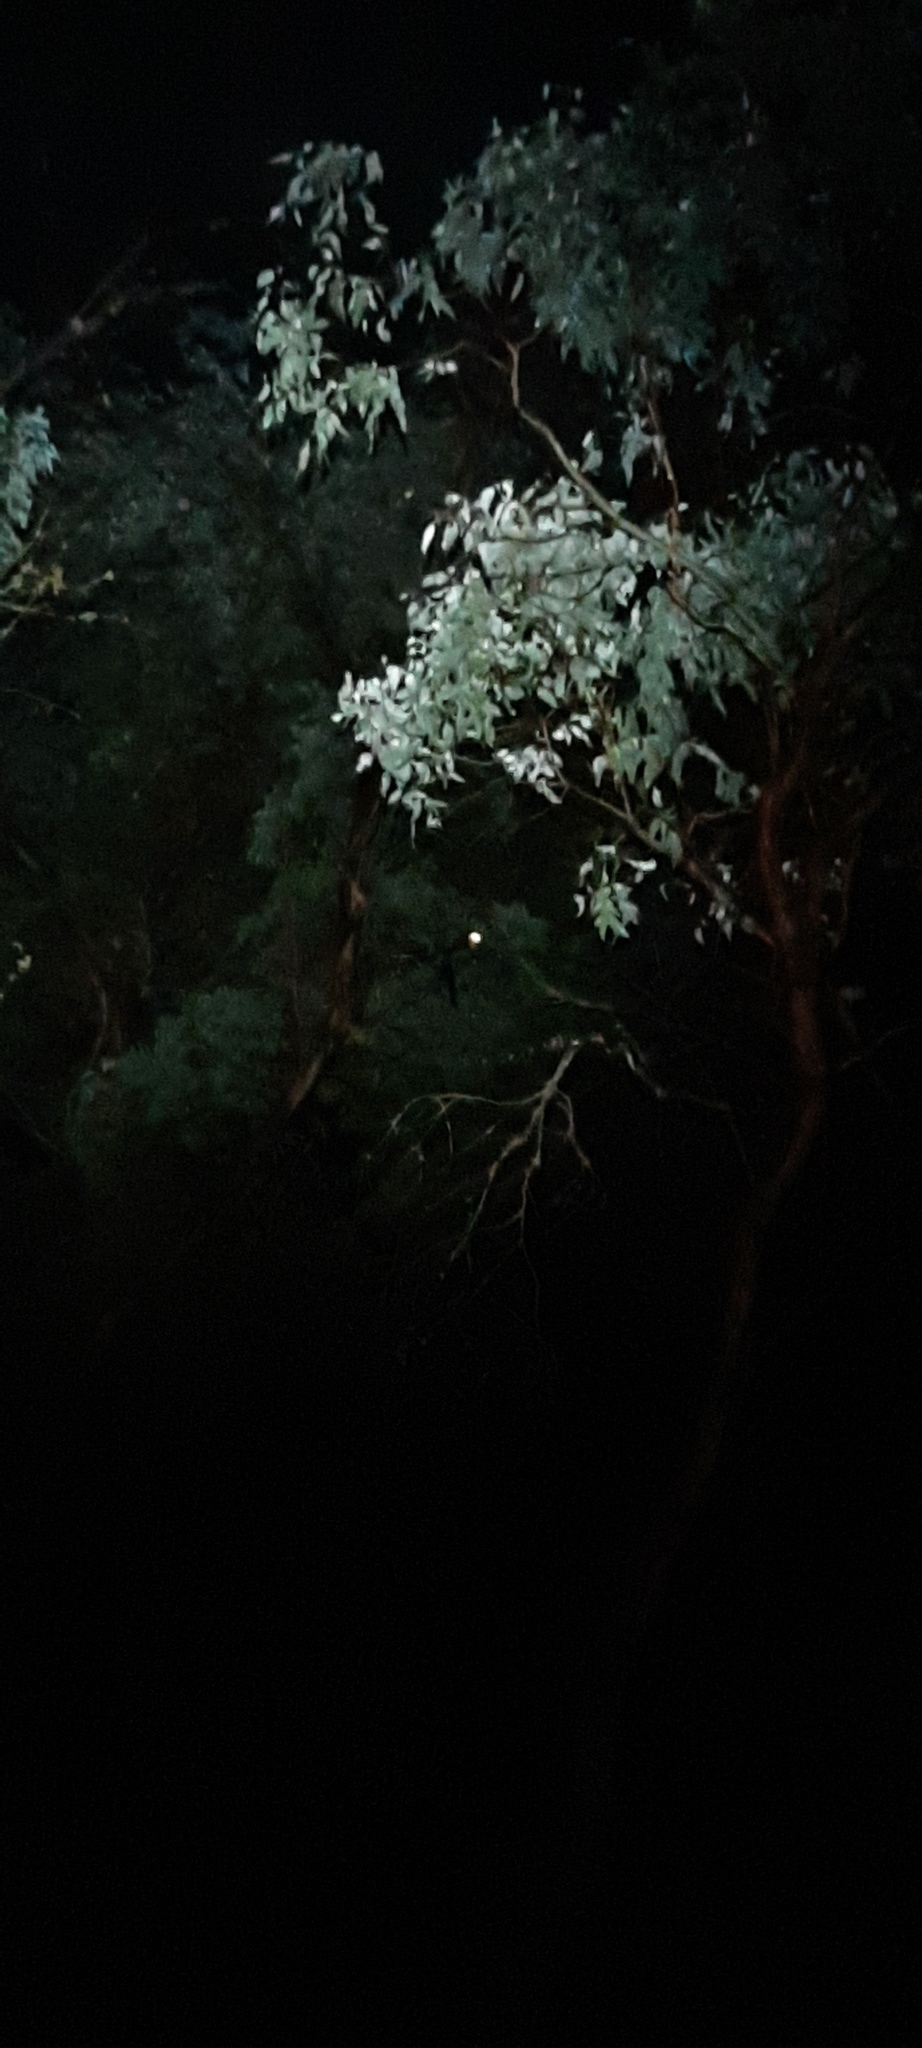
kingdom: Animalia
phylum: Chordata
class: Mammalia
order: Diprotodontia
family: Pseudocheiridae
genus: Petauroides
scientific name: Petauroides volans
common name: Greater glider
